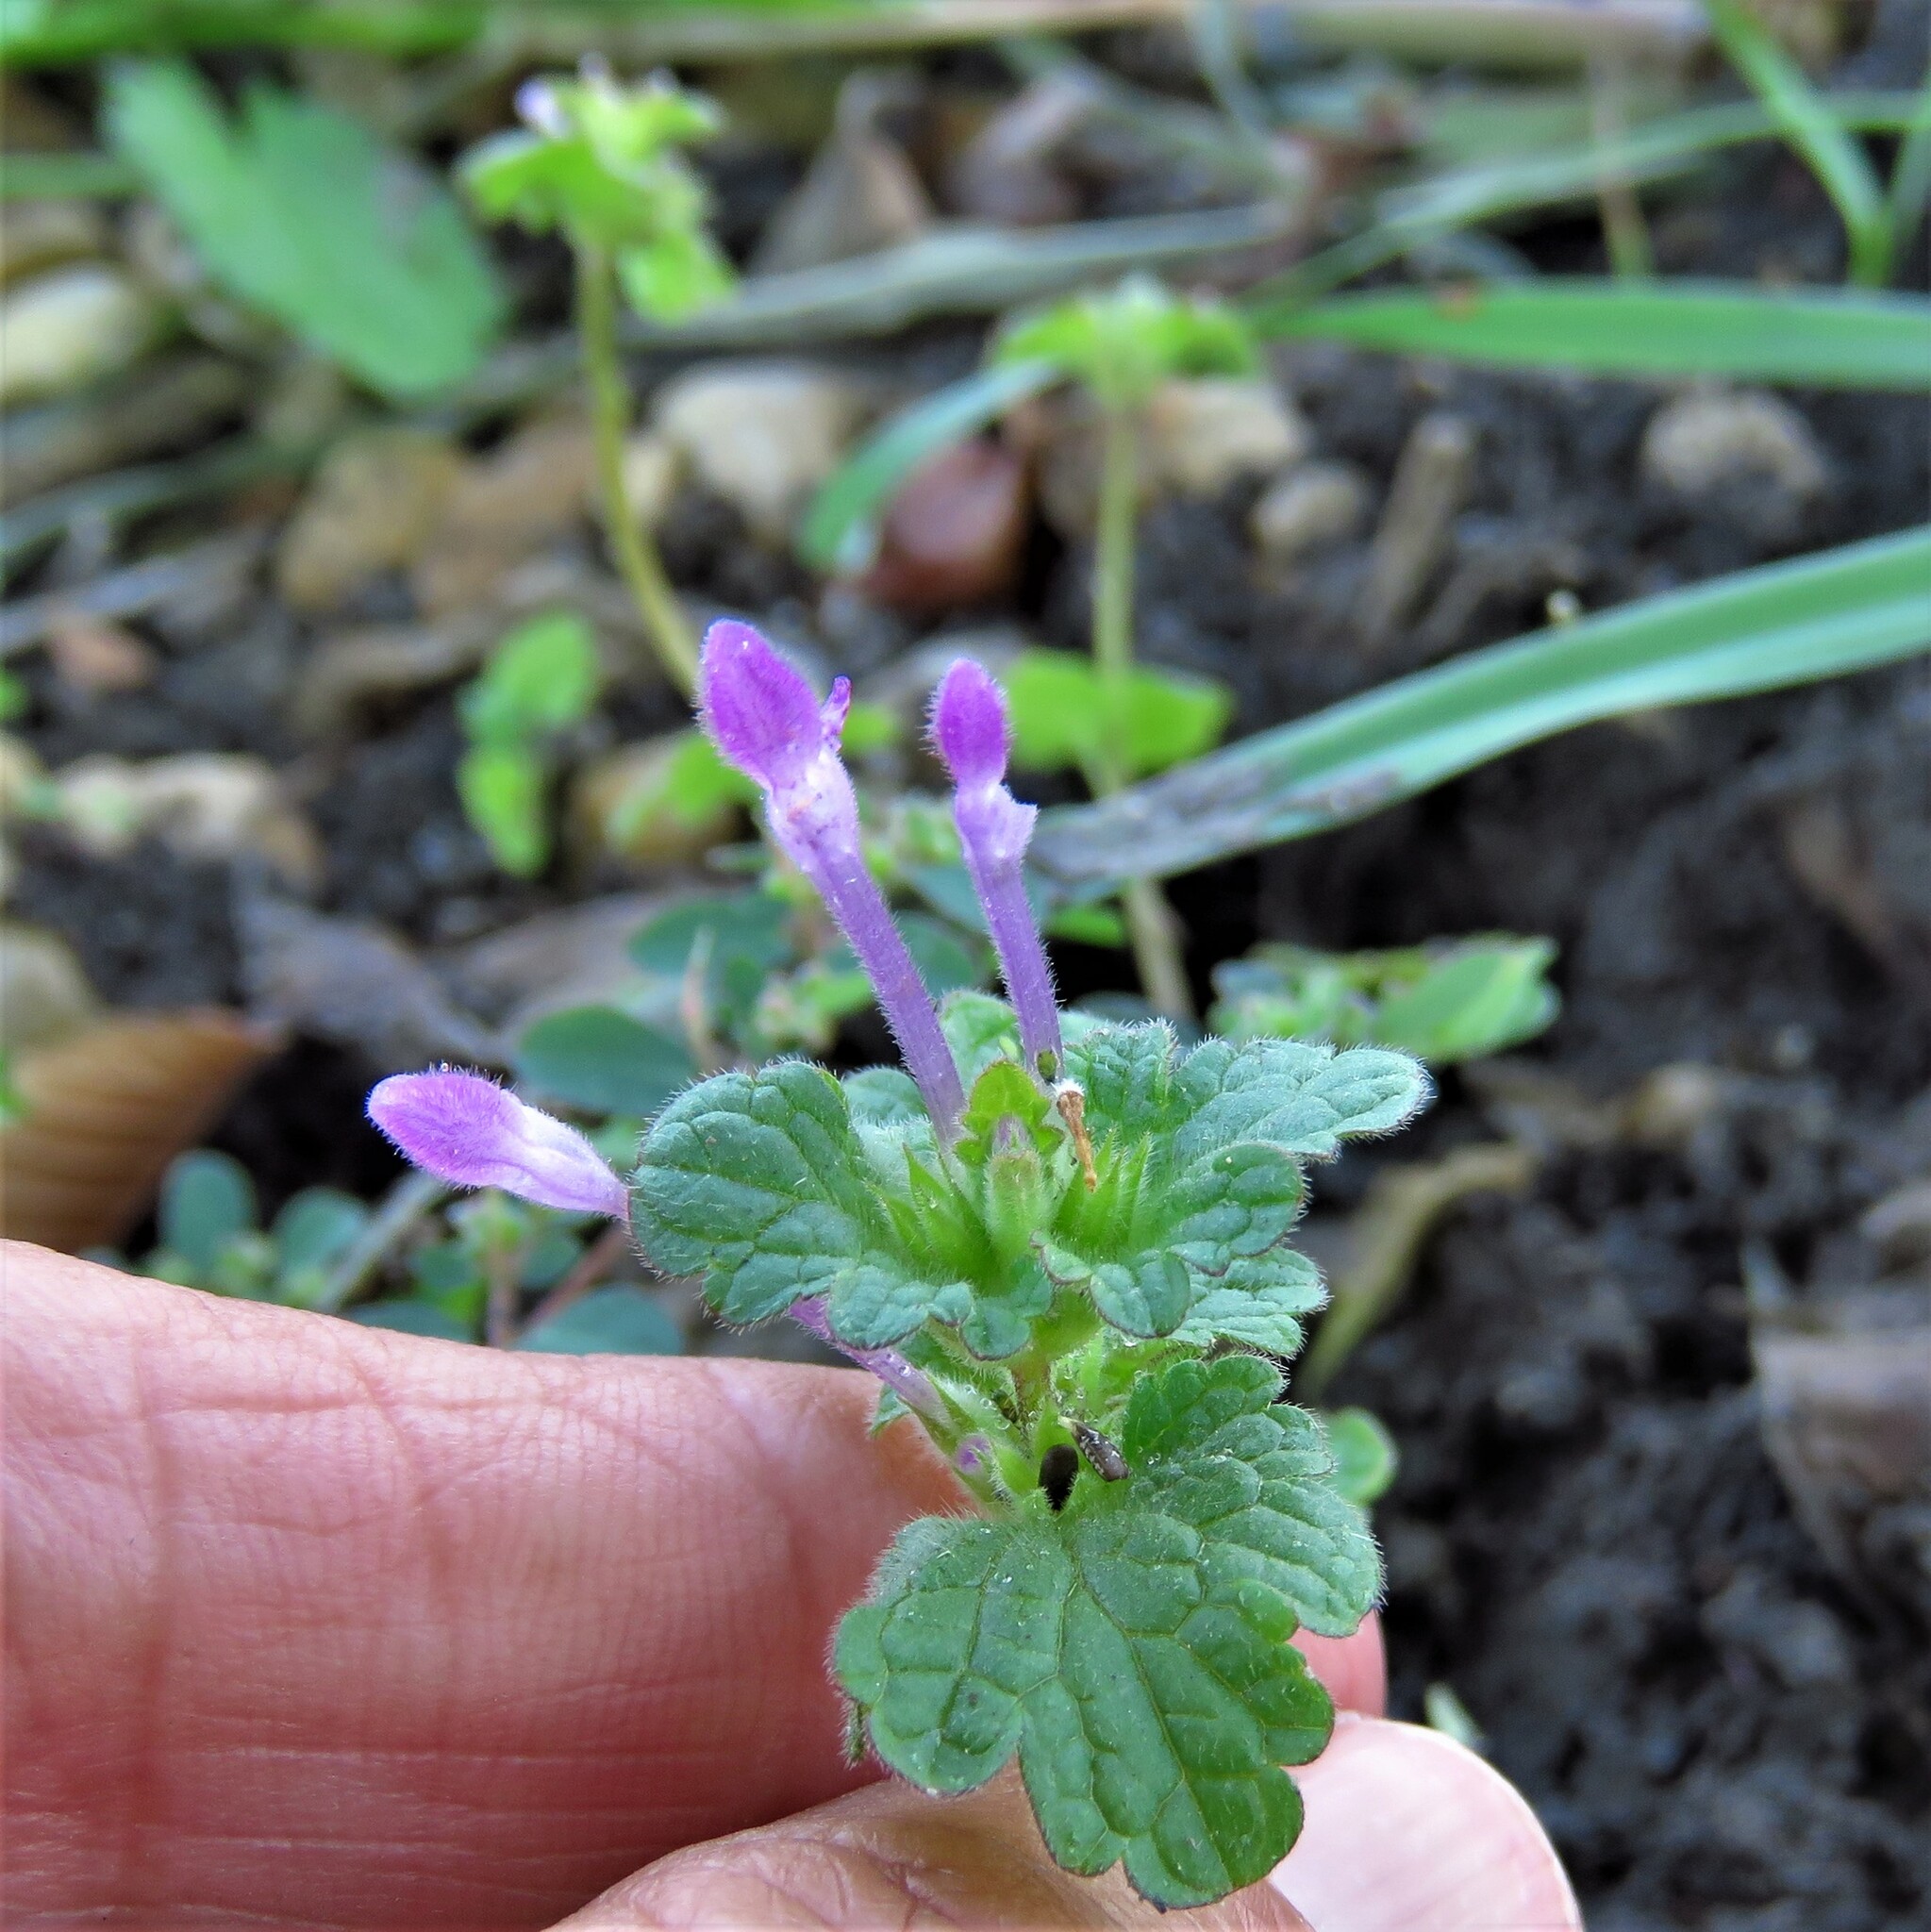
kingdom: Plantae
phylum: Tracheophyta
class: Magnoliopsida
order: Lamiales
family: Lamiaceae
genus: Lamium
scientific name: Lamium amplexicaule
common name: Henbit dead-nettle
